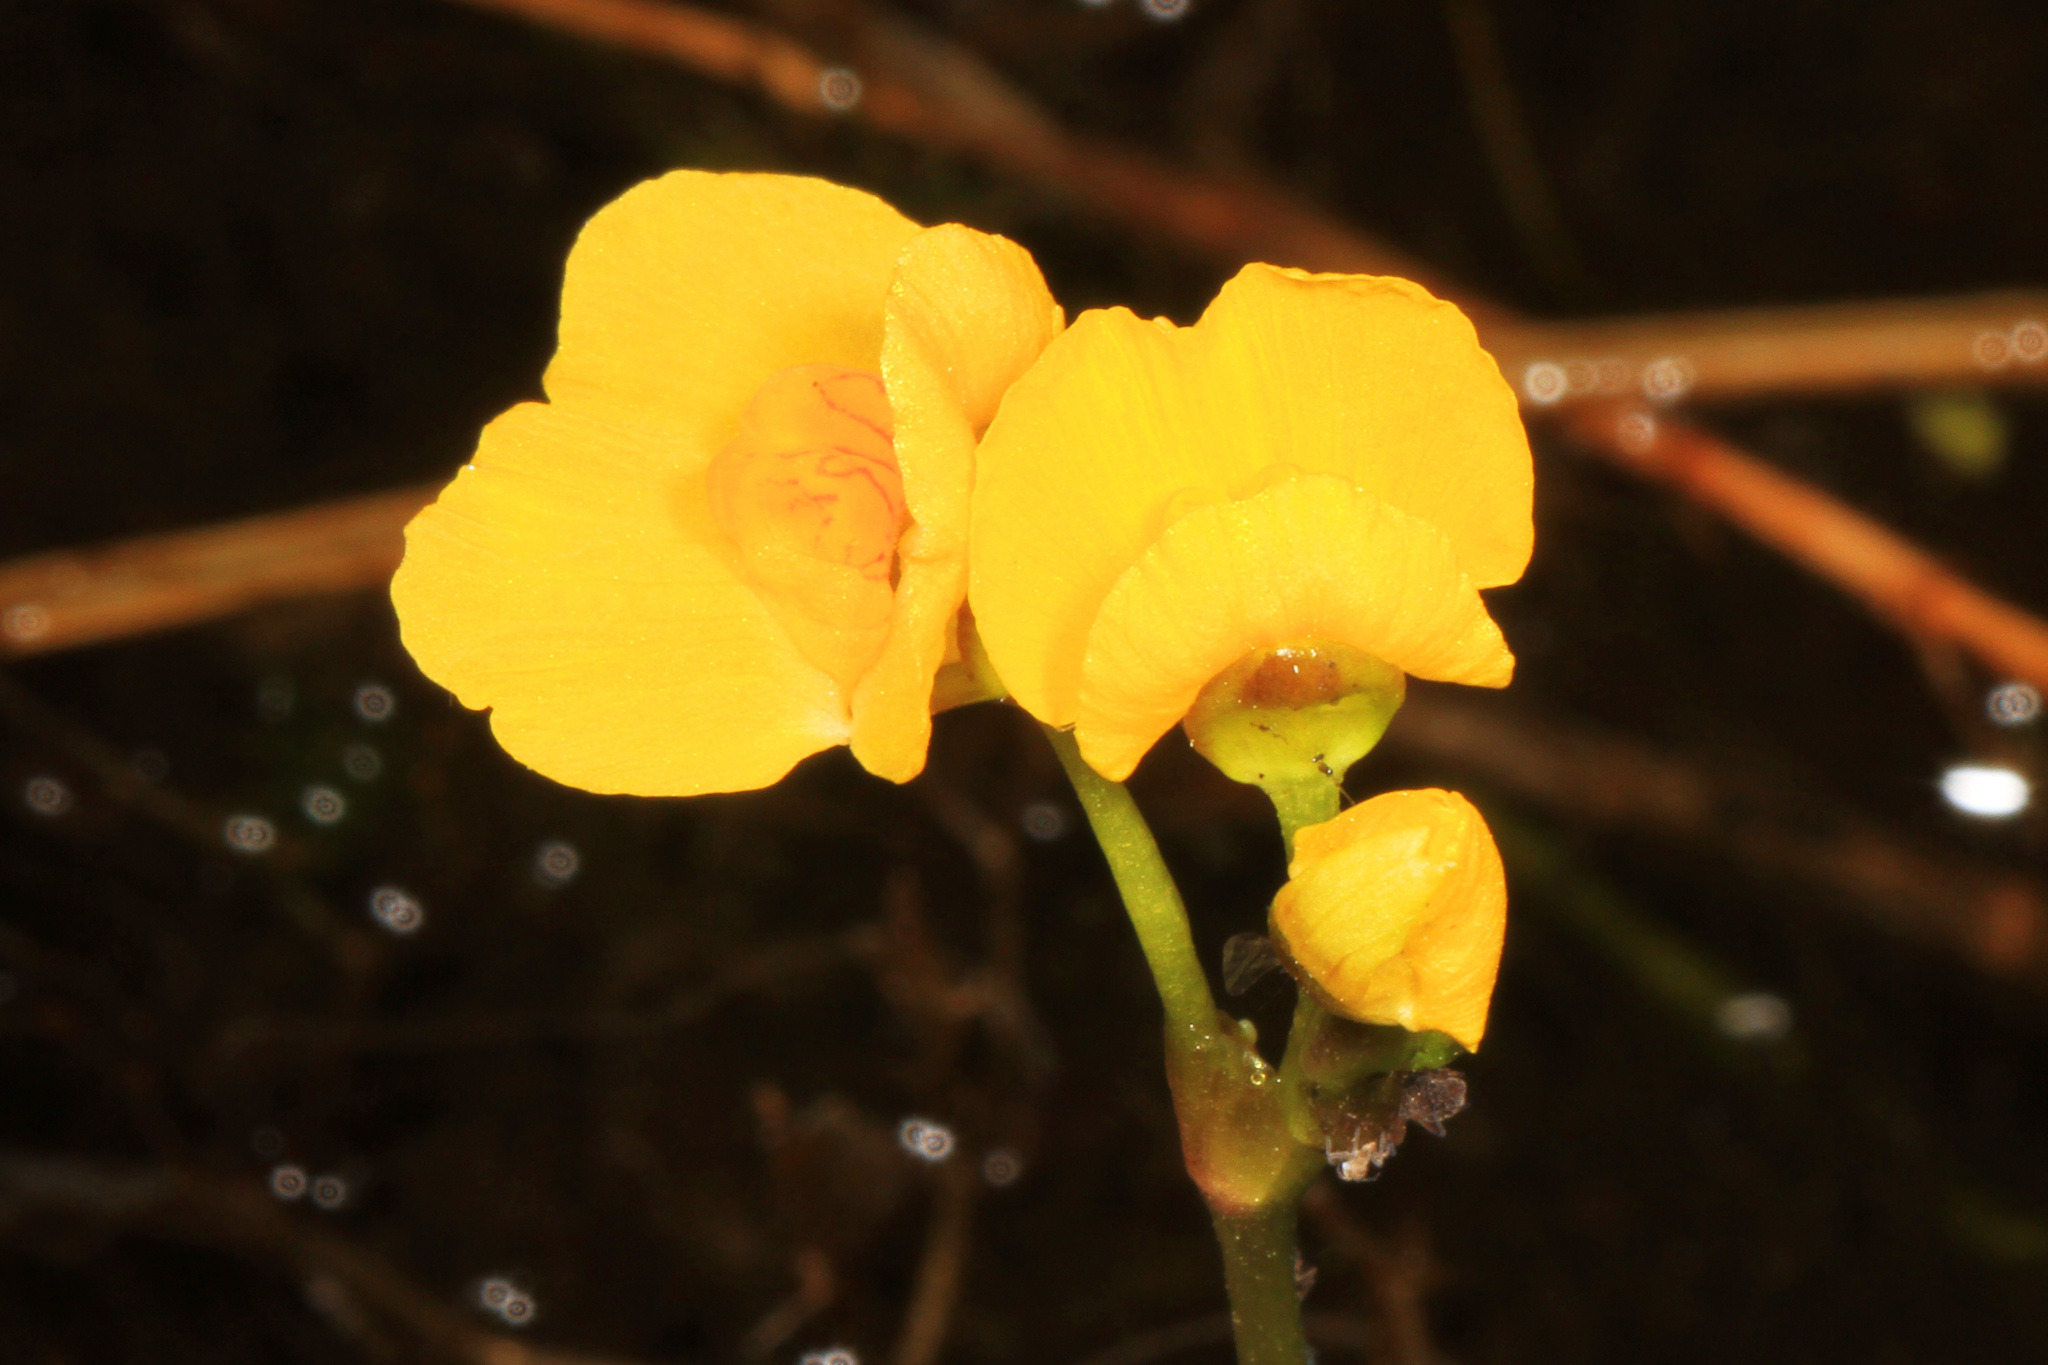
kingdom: Plantae
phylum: Tracheophyta
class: Magnoliopsida
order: Lamiales
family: Lentibulariaceae
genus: Utricularia
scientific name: Utricularia foliosa
